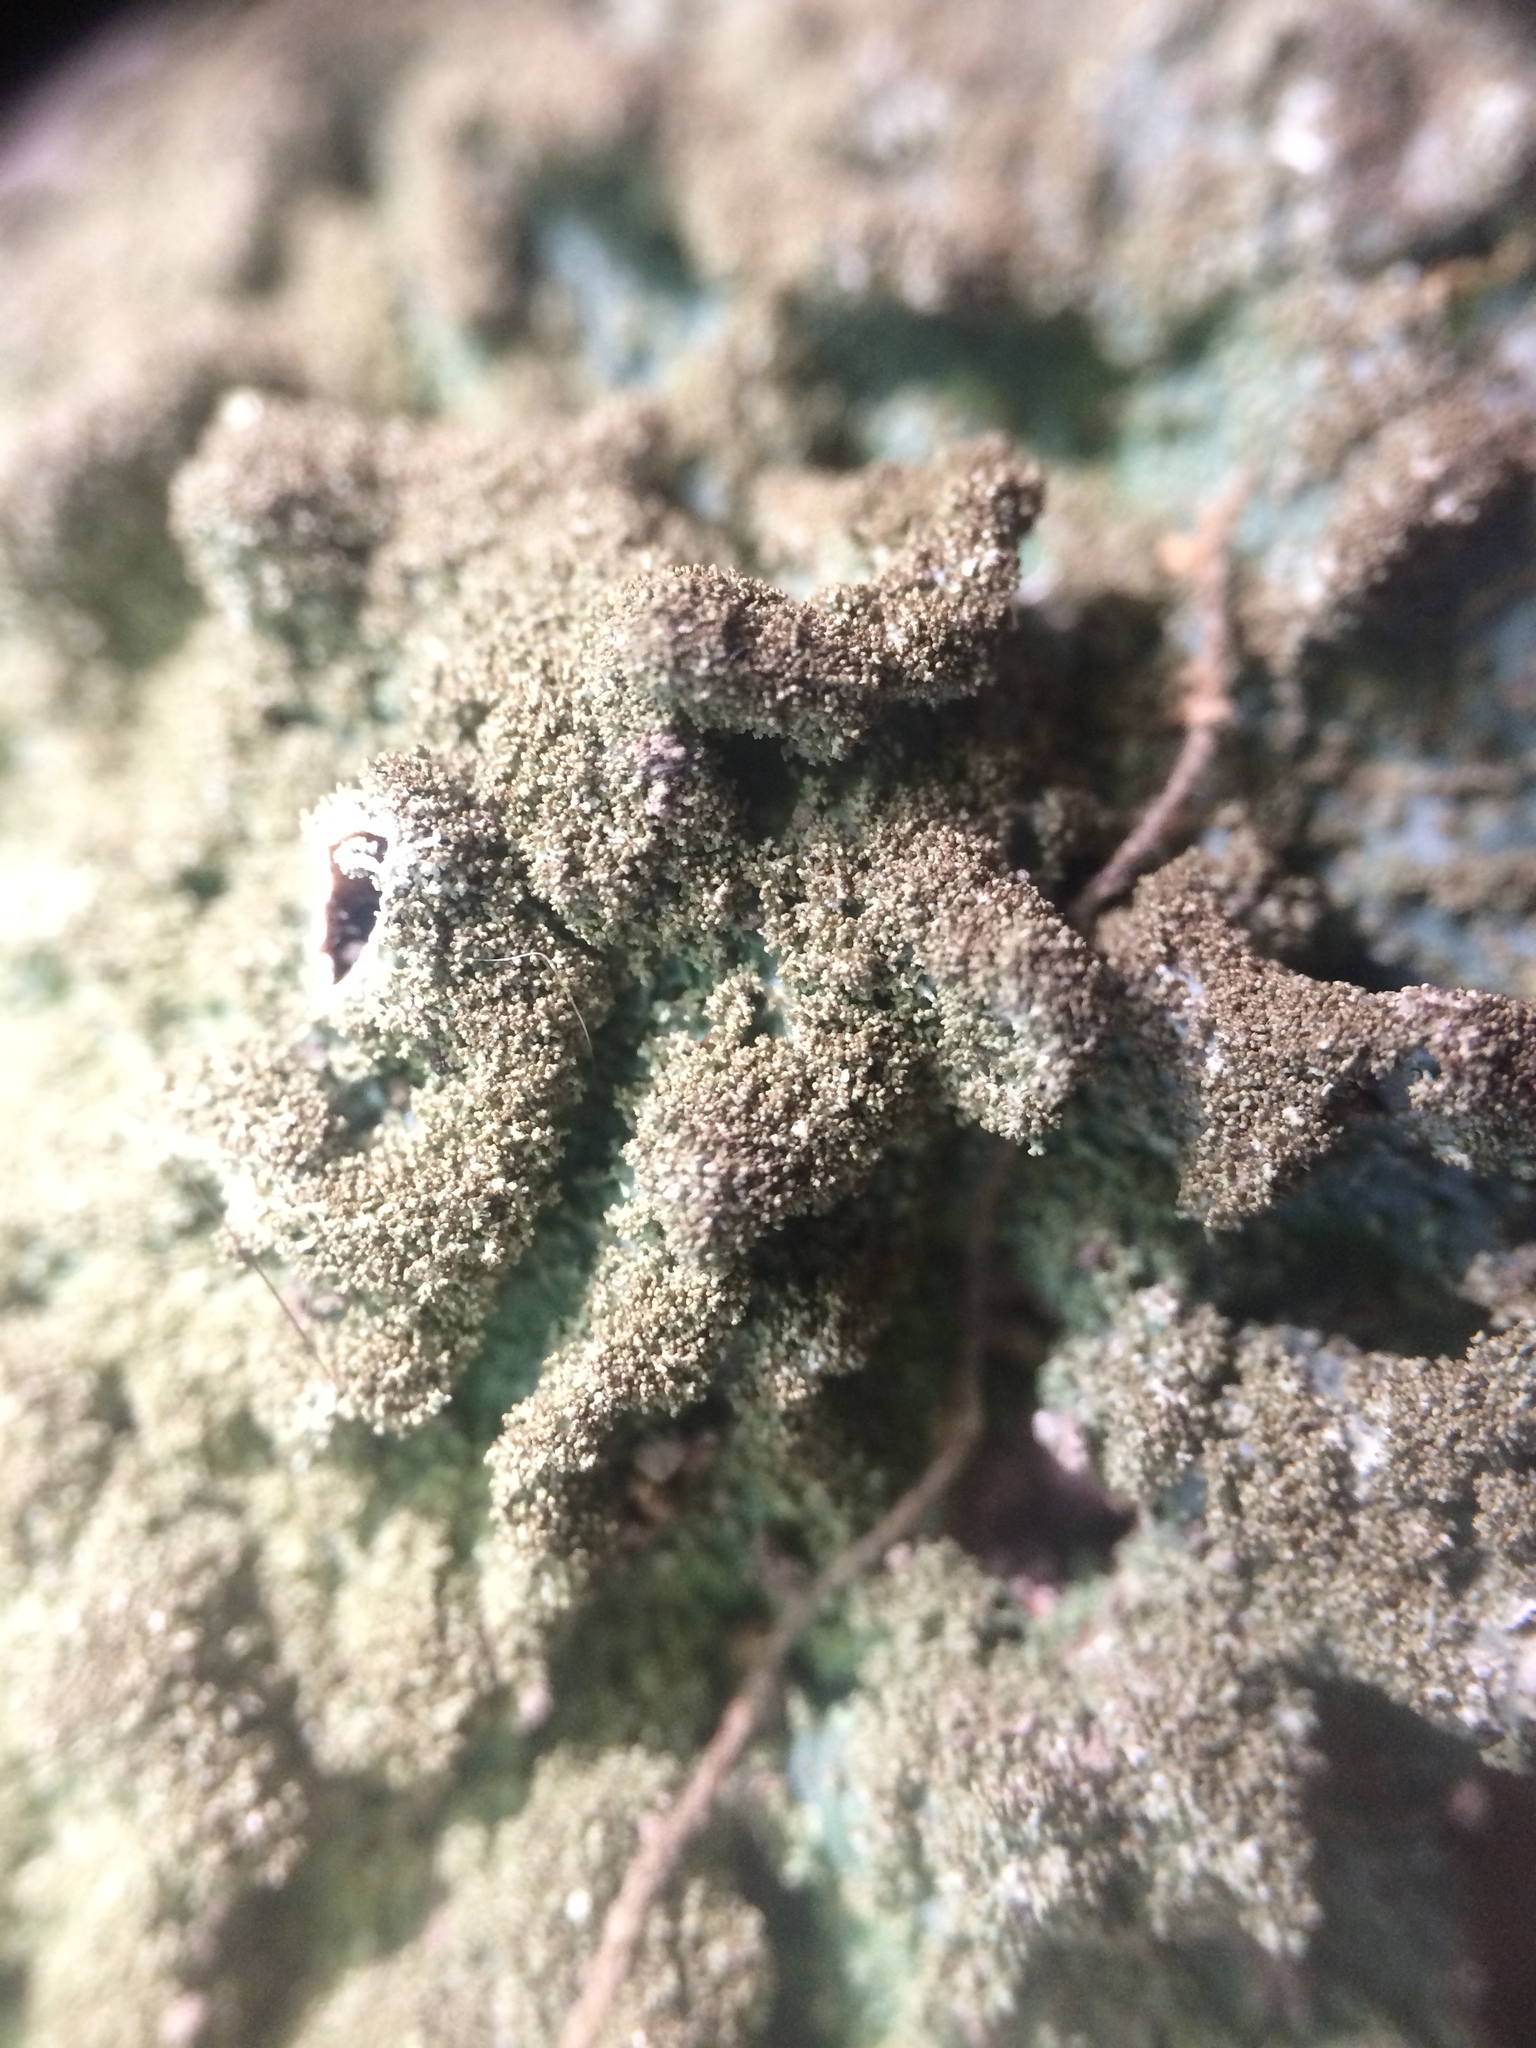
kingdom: Fungi
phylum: Ascomycota
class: Lecanoromycetes
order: Lecanorales
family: Parmeliaceae
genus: Punctelia
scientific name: Punctelia rudecta
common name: Rough speckled shield lichen
